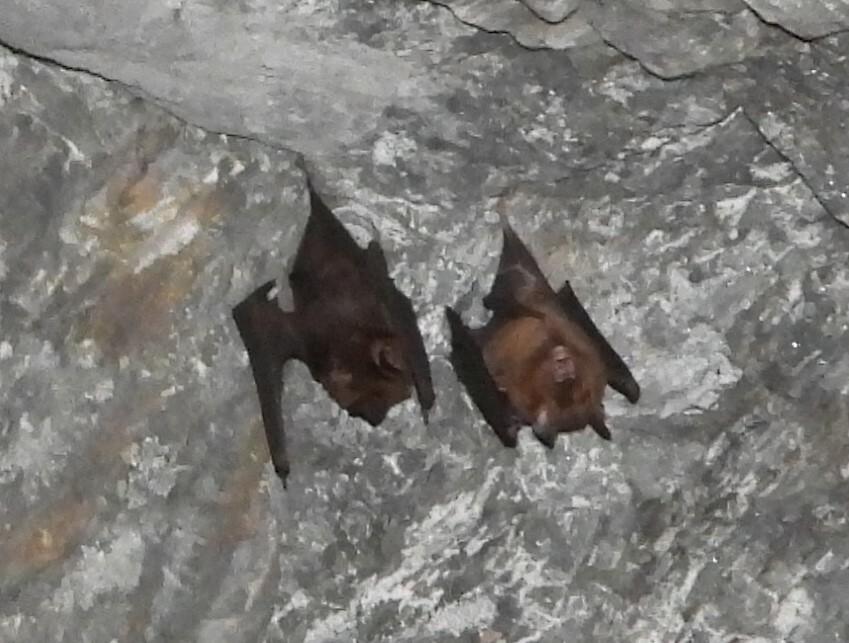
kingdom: Animalia
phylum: Chordata
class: Mammalia
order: Chiroptera
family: Hipposideridae
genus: Hipposideros
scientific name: Hipposideros armiger
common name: Great leaf-nosed bat
